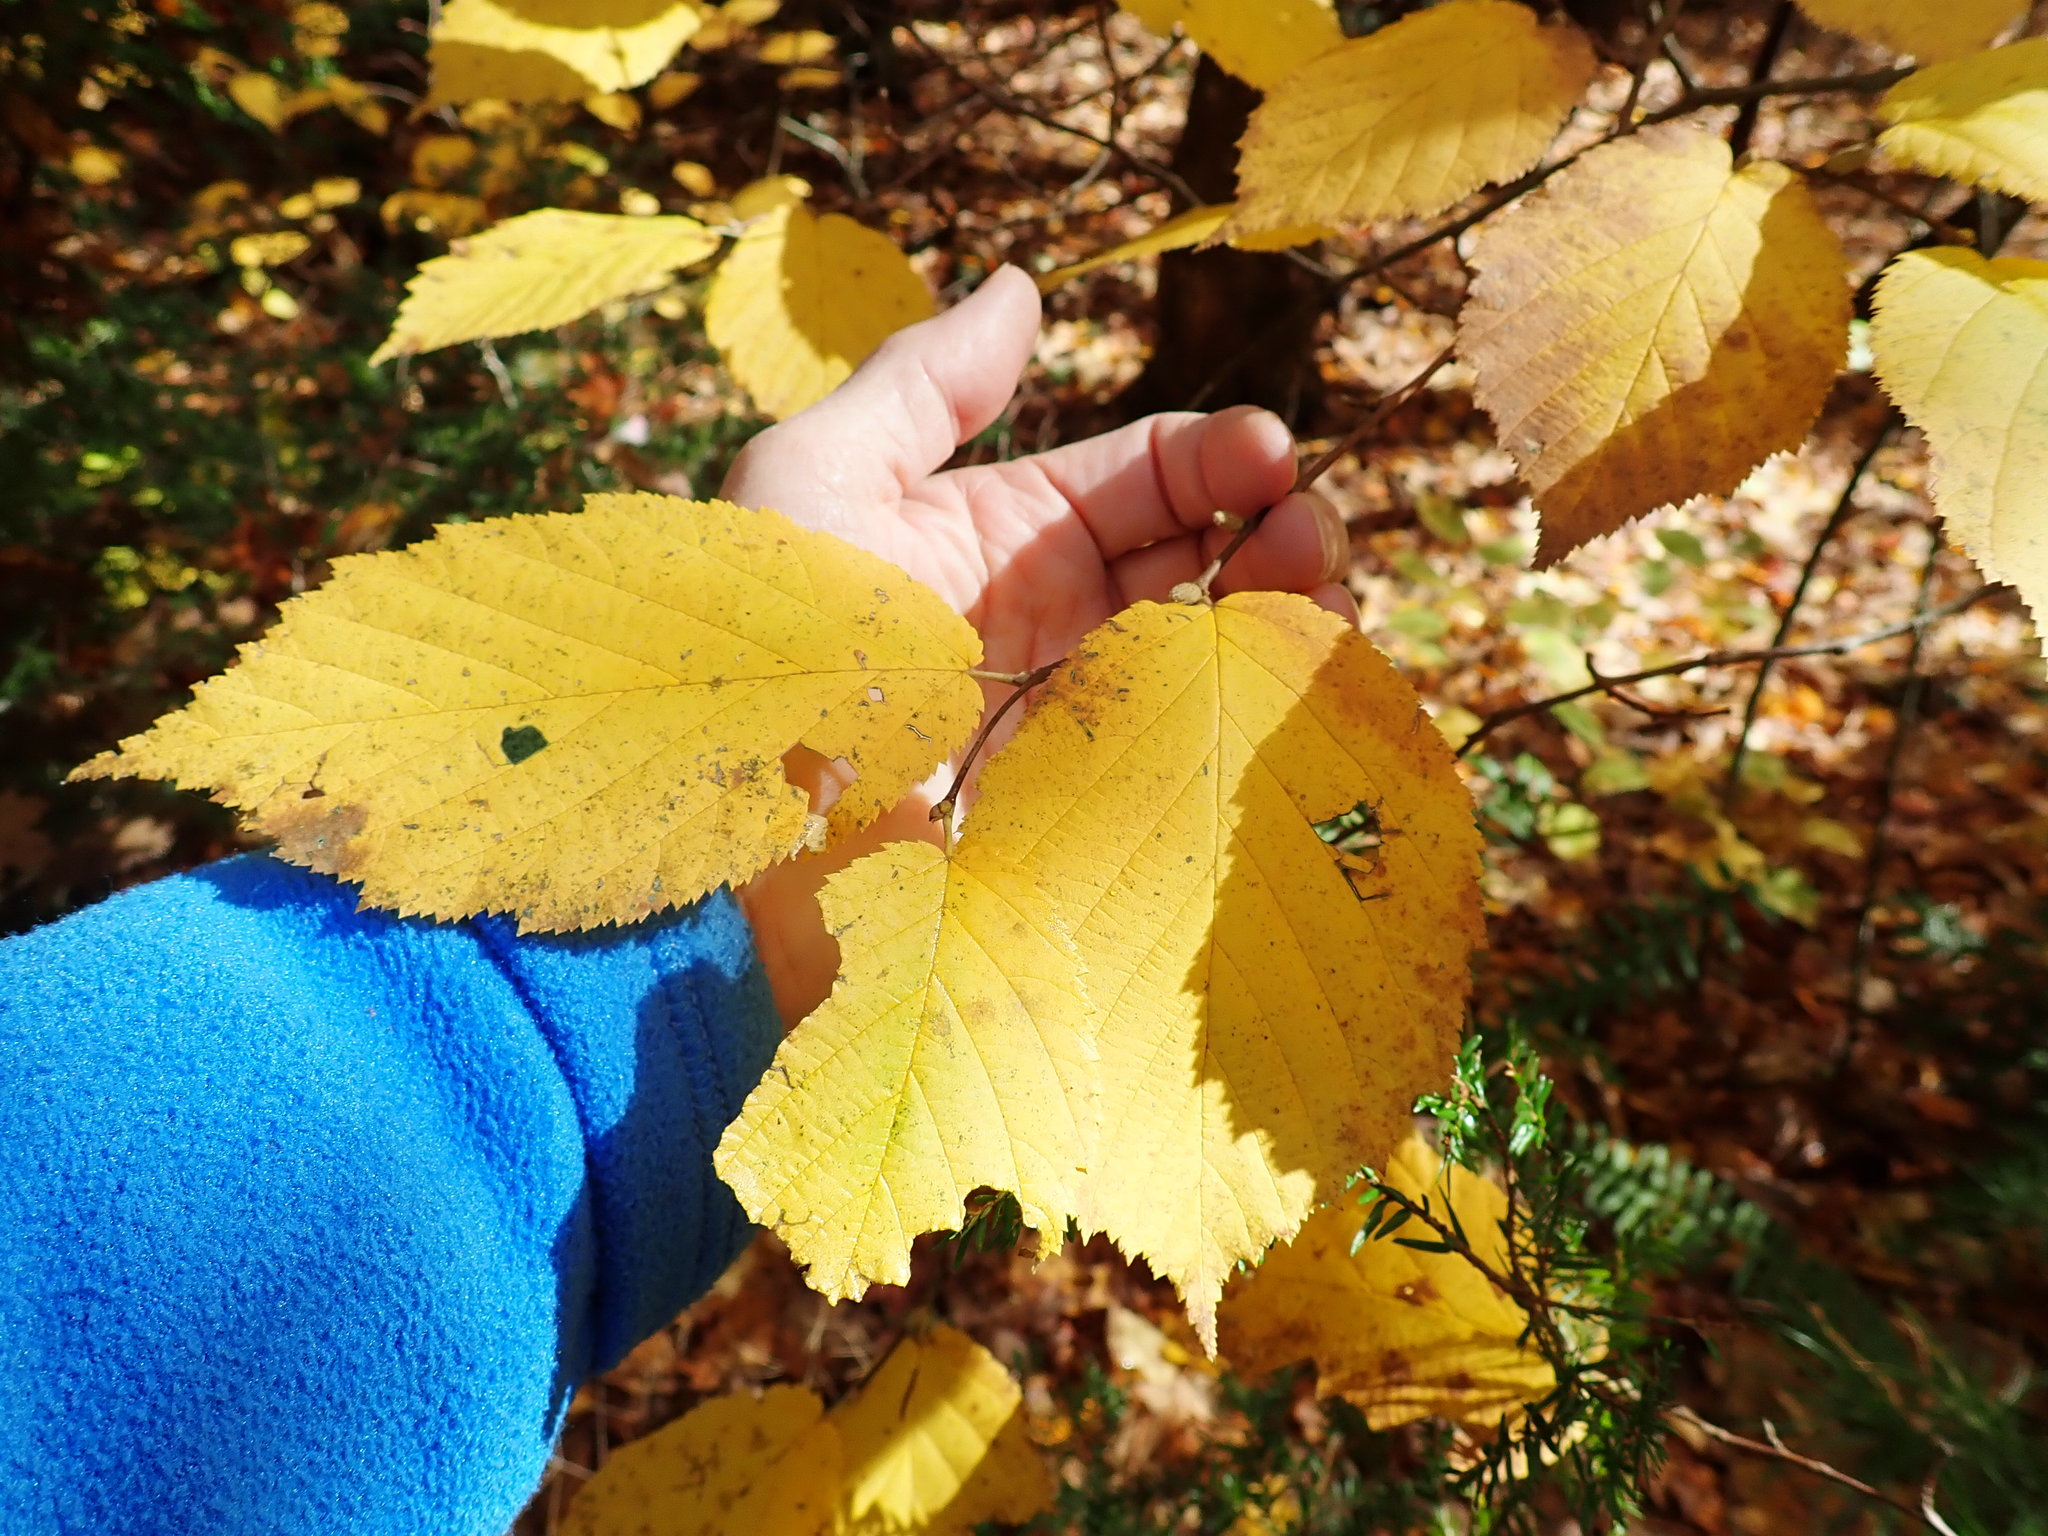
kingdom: Plantae
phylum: Tracheophyta
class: Magnoliopsida
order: Fagales
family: Betulaceae
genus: Corylus
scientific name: Corylus cornuta
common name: Beaked hazel
